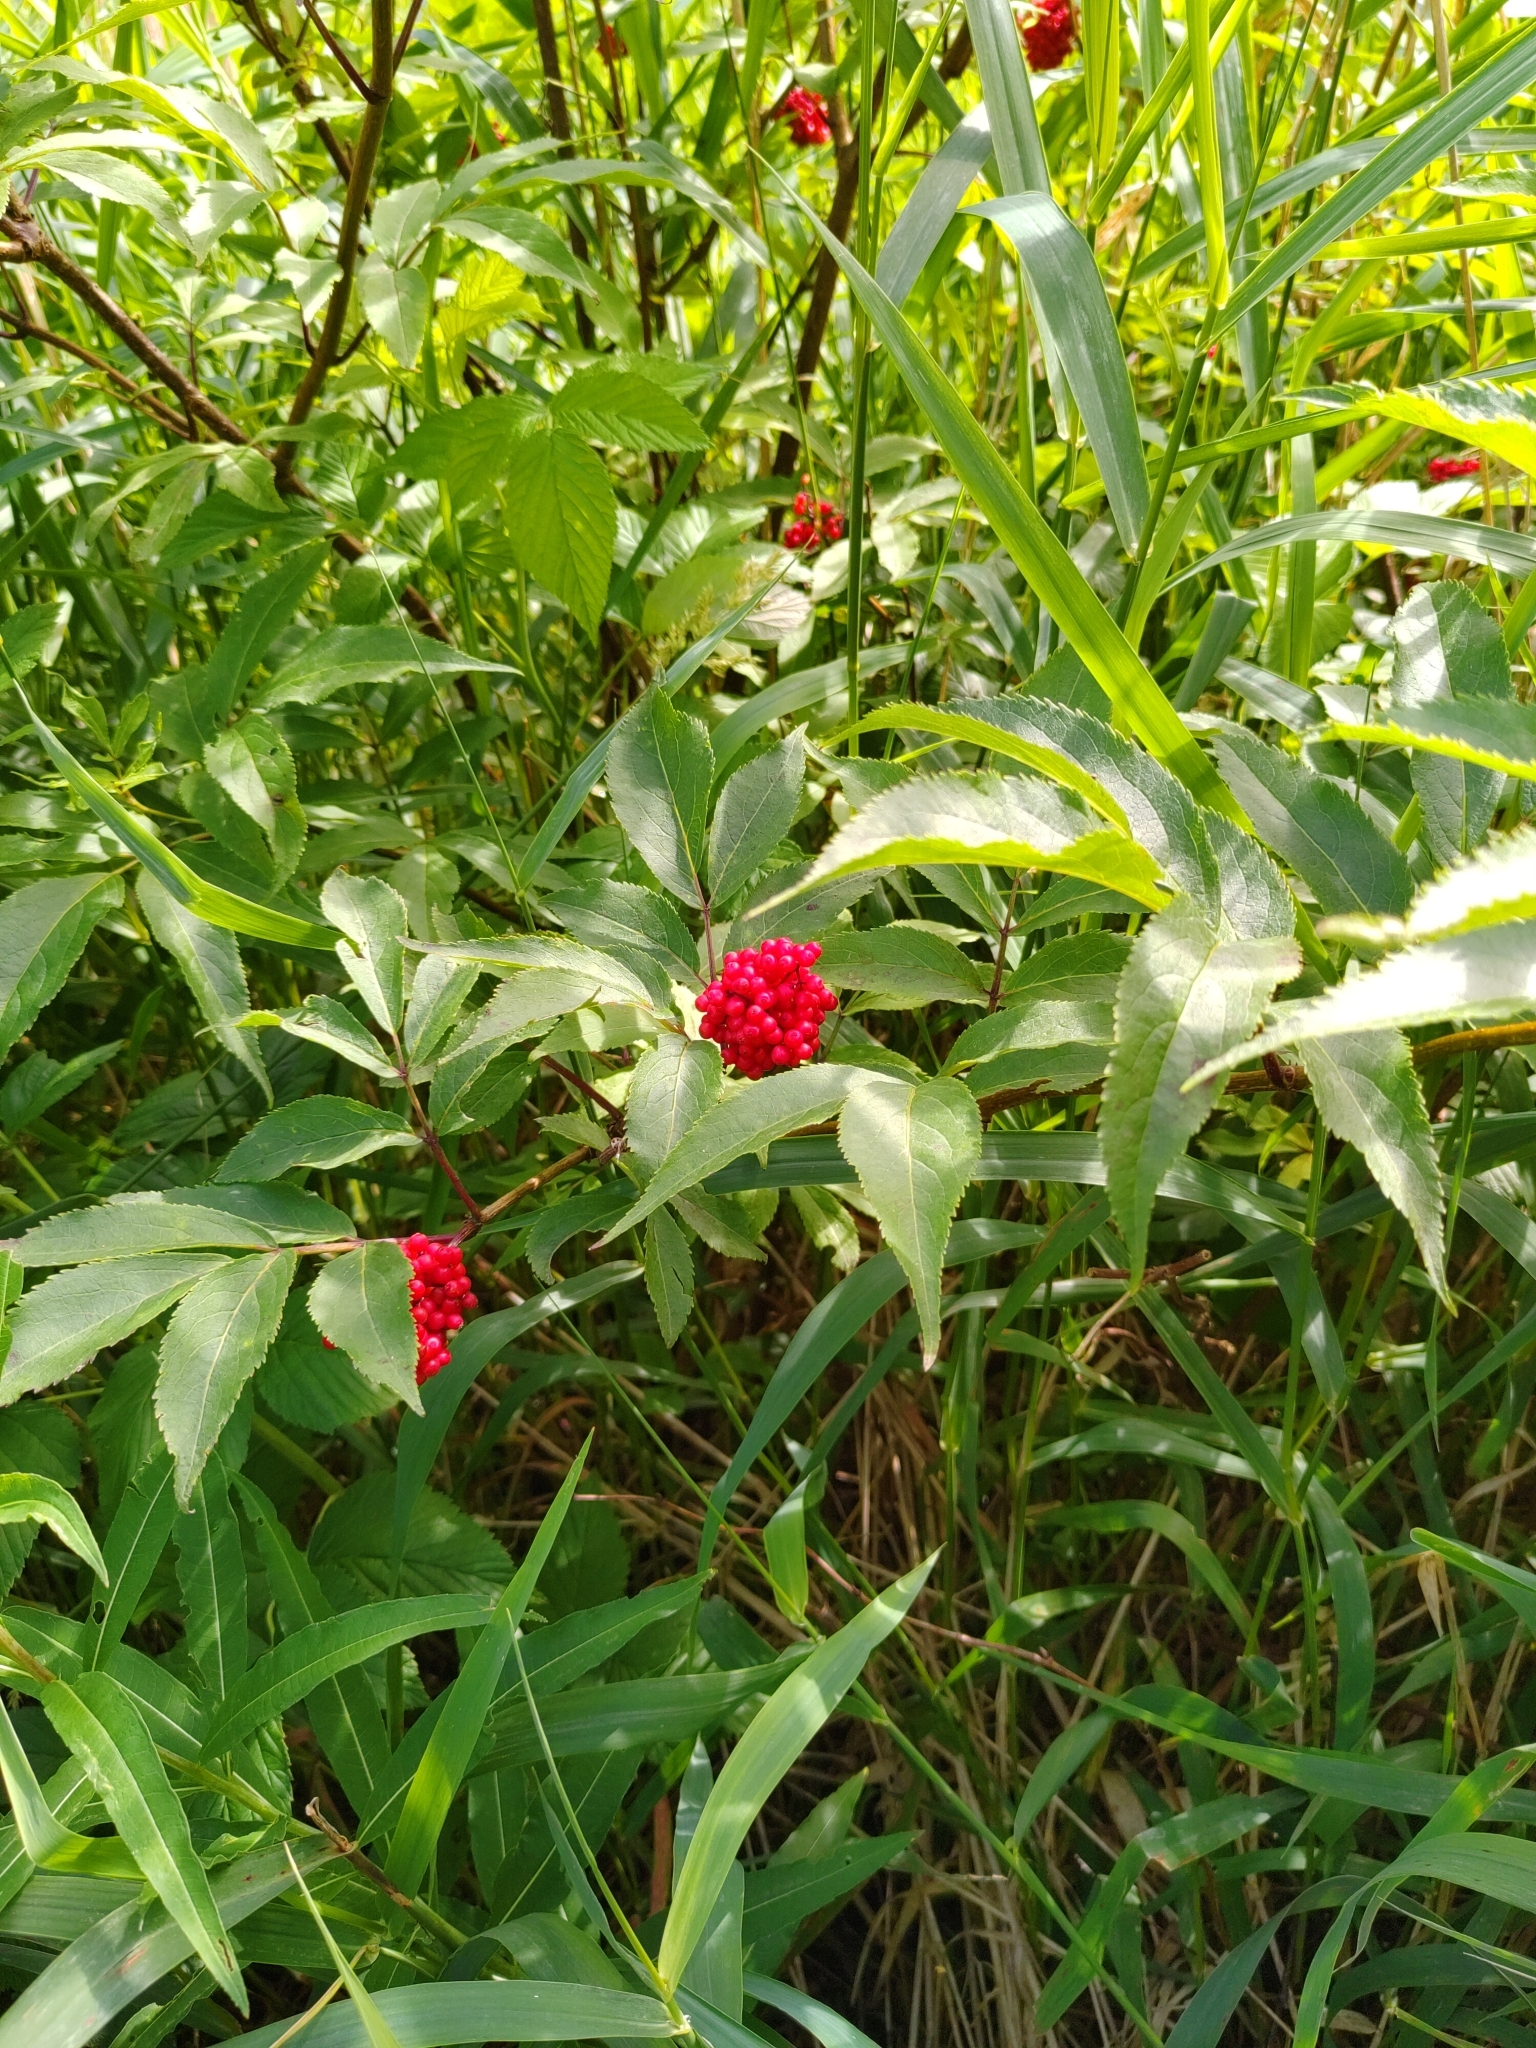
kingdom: Plantae
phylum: Tracheophyta
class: Magnoliopsida
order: Dipsacales
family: Viburnaceae
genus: Sambucus
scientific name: Sambucus racemosa
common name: Red-berried elder
